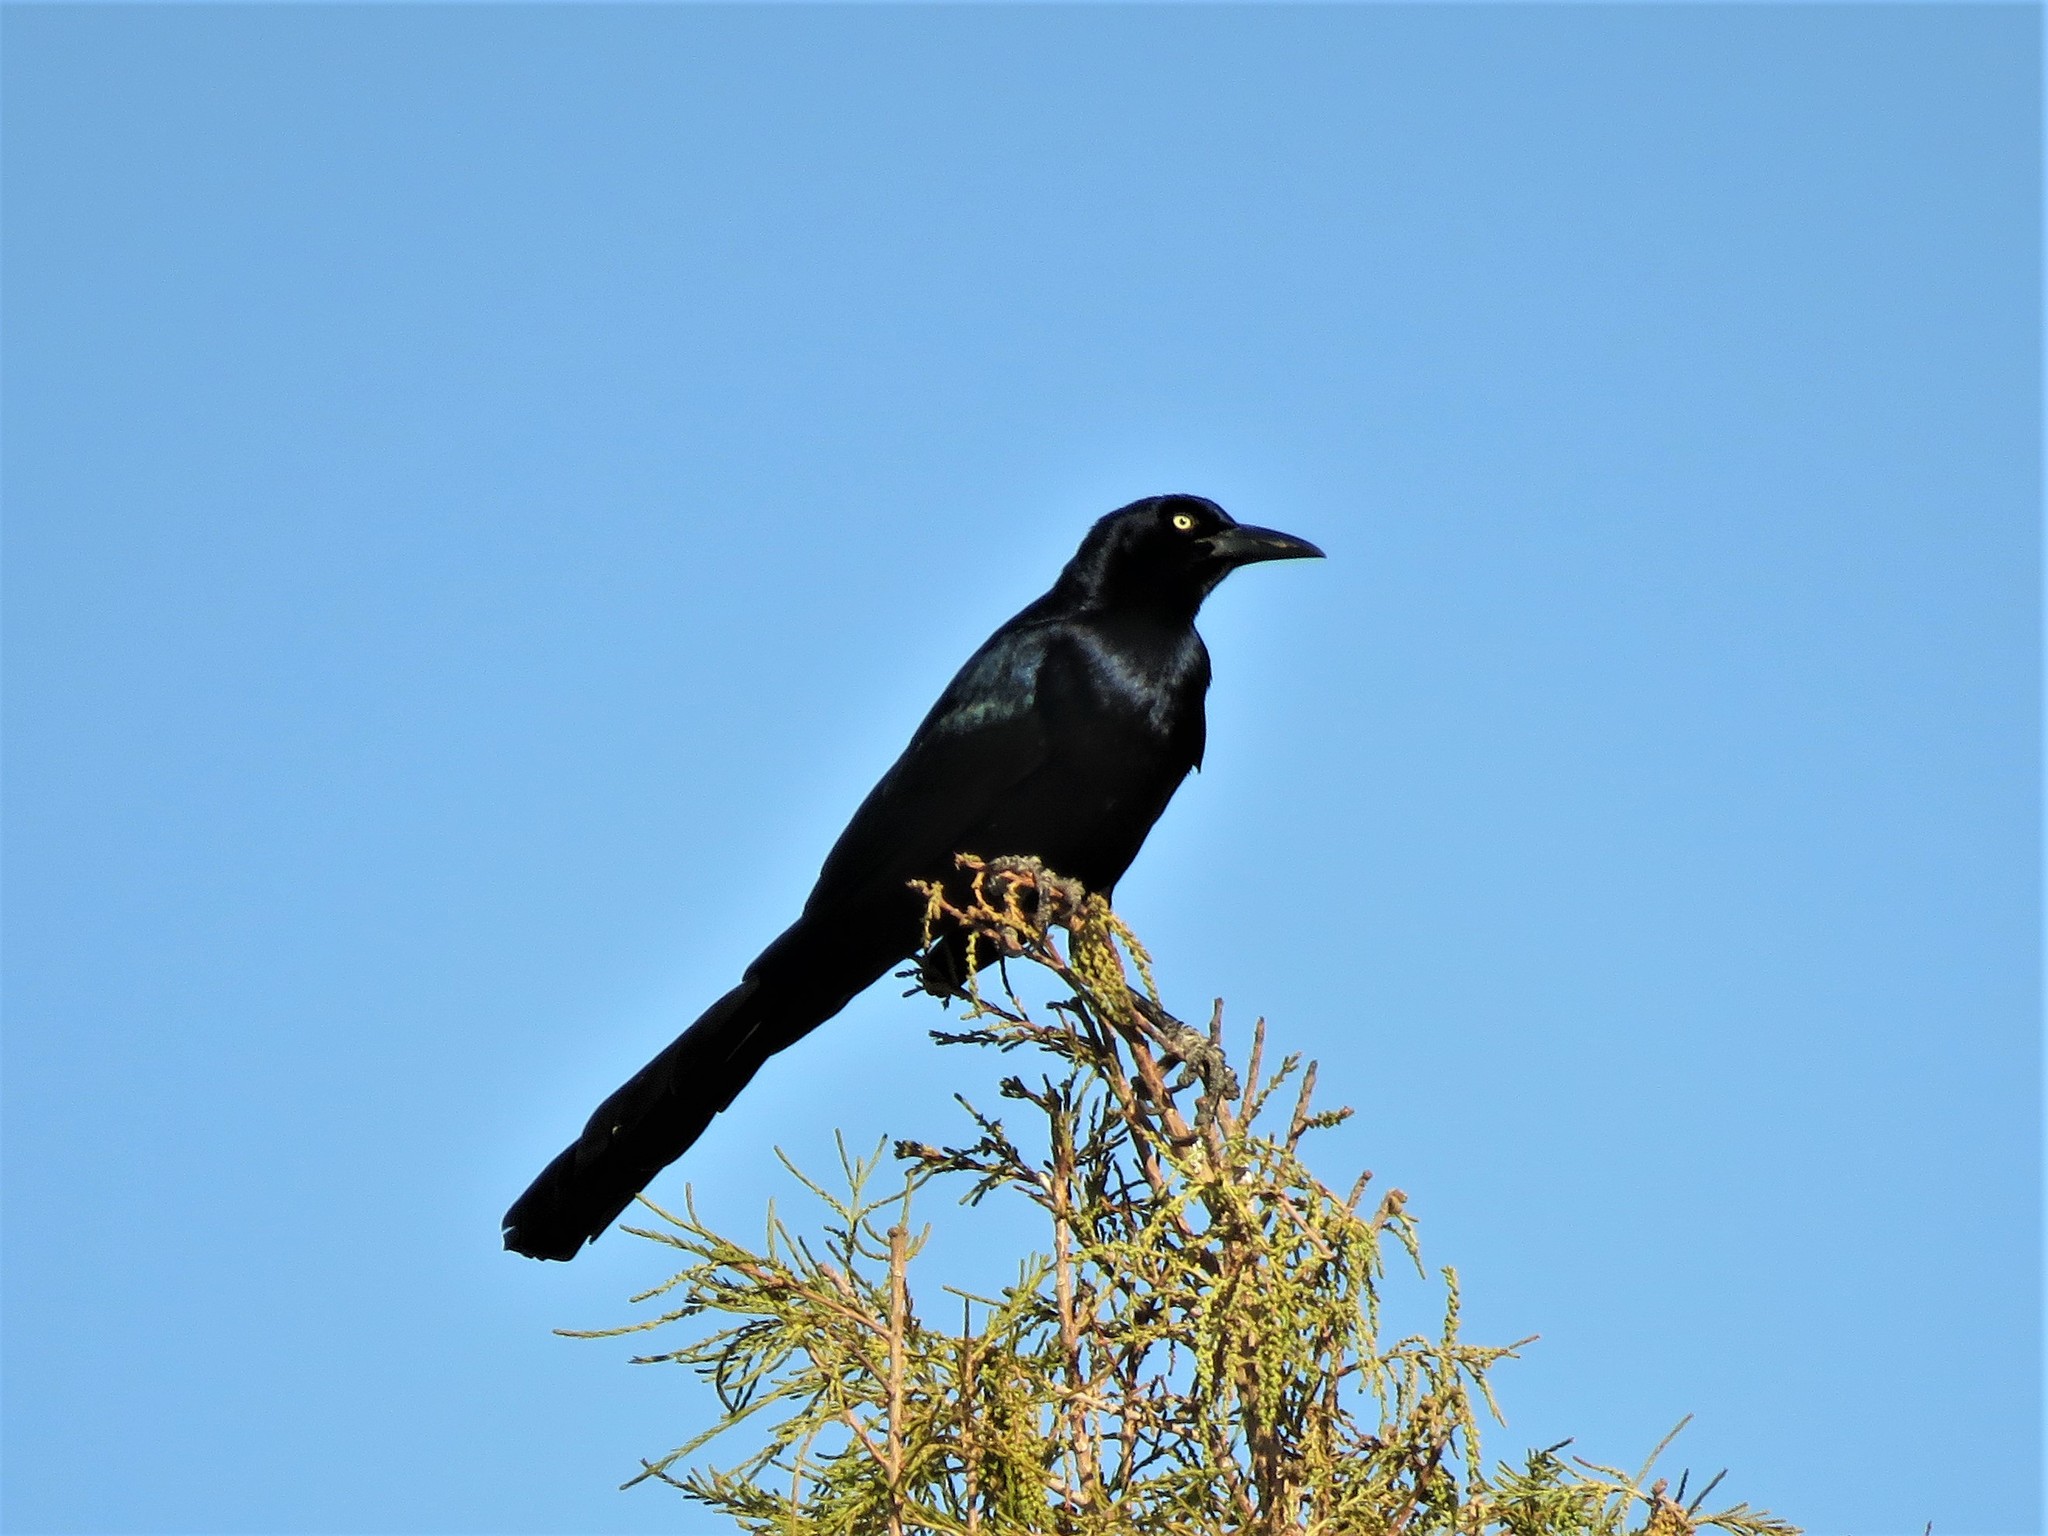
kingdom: Animalia
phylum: Chordata
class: Aves
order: Passeriformes
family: Icteridae
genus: Quiscalus
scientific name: Quiscalus mexicanus
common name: Great-tailed grackle
